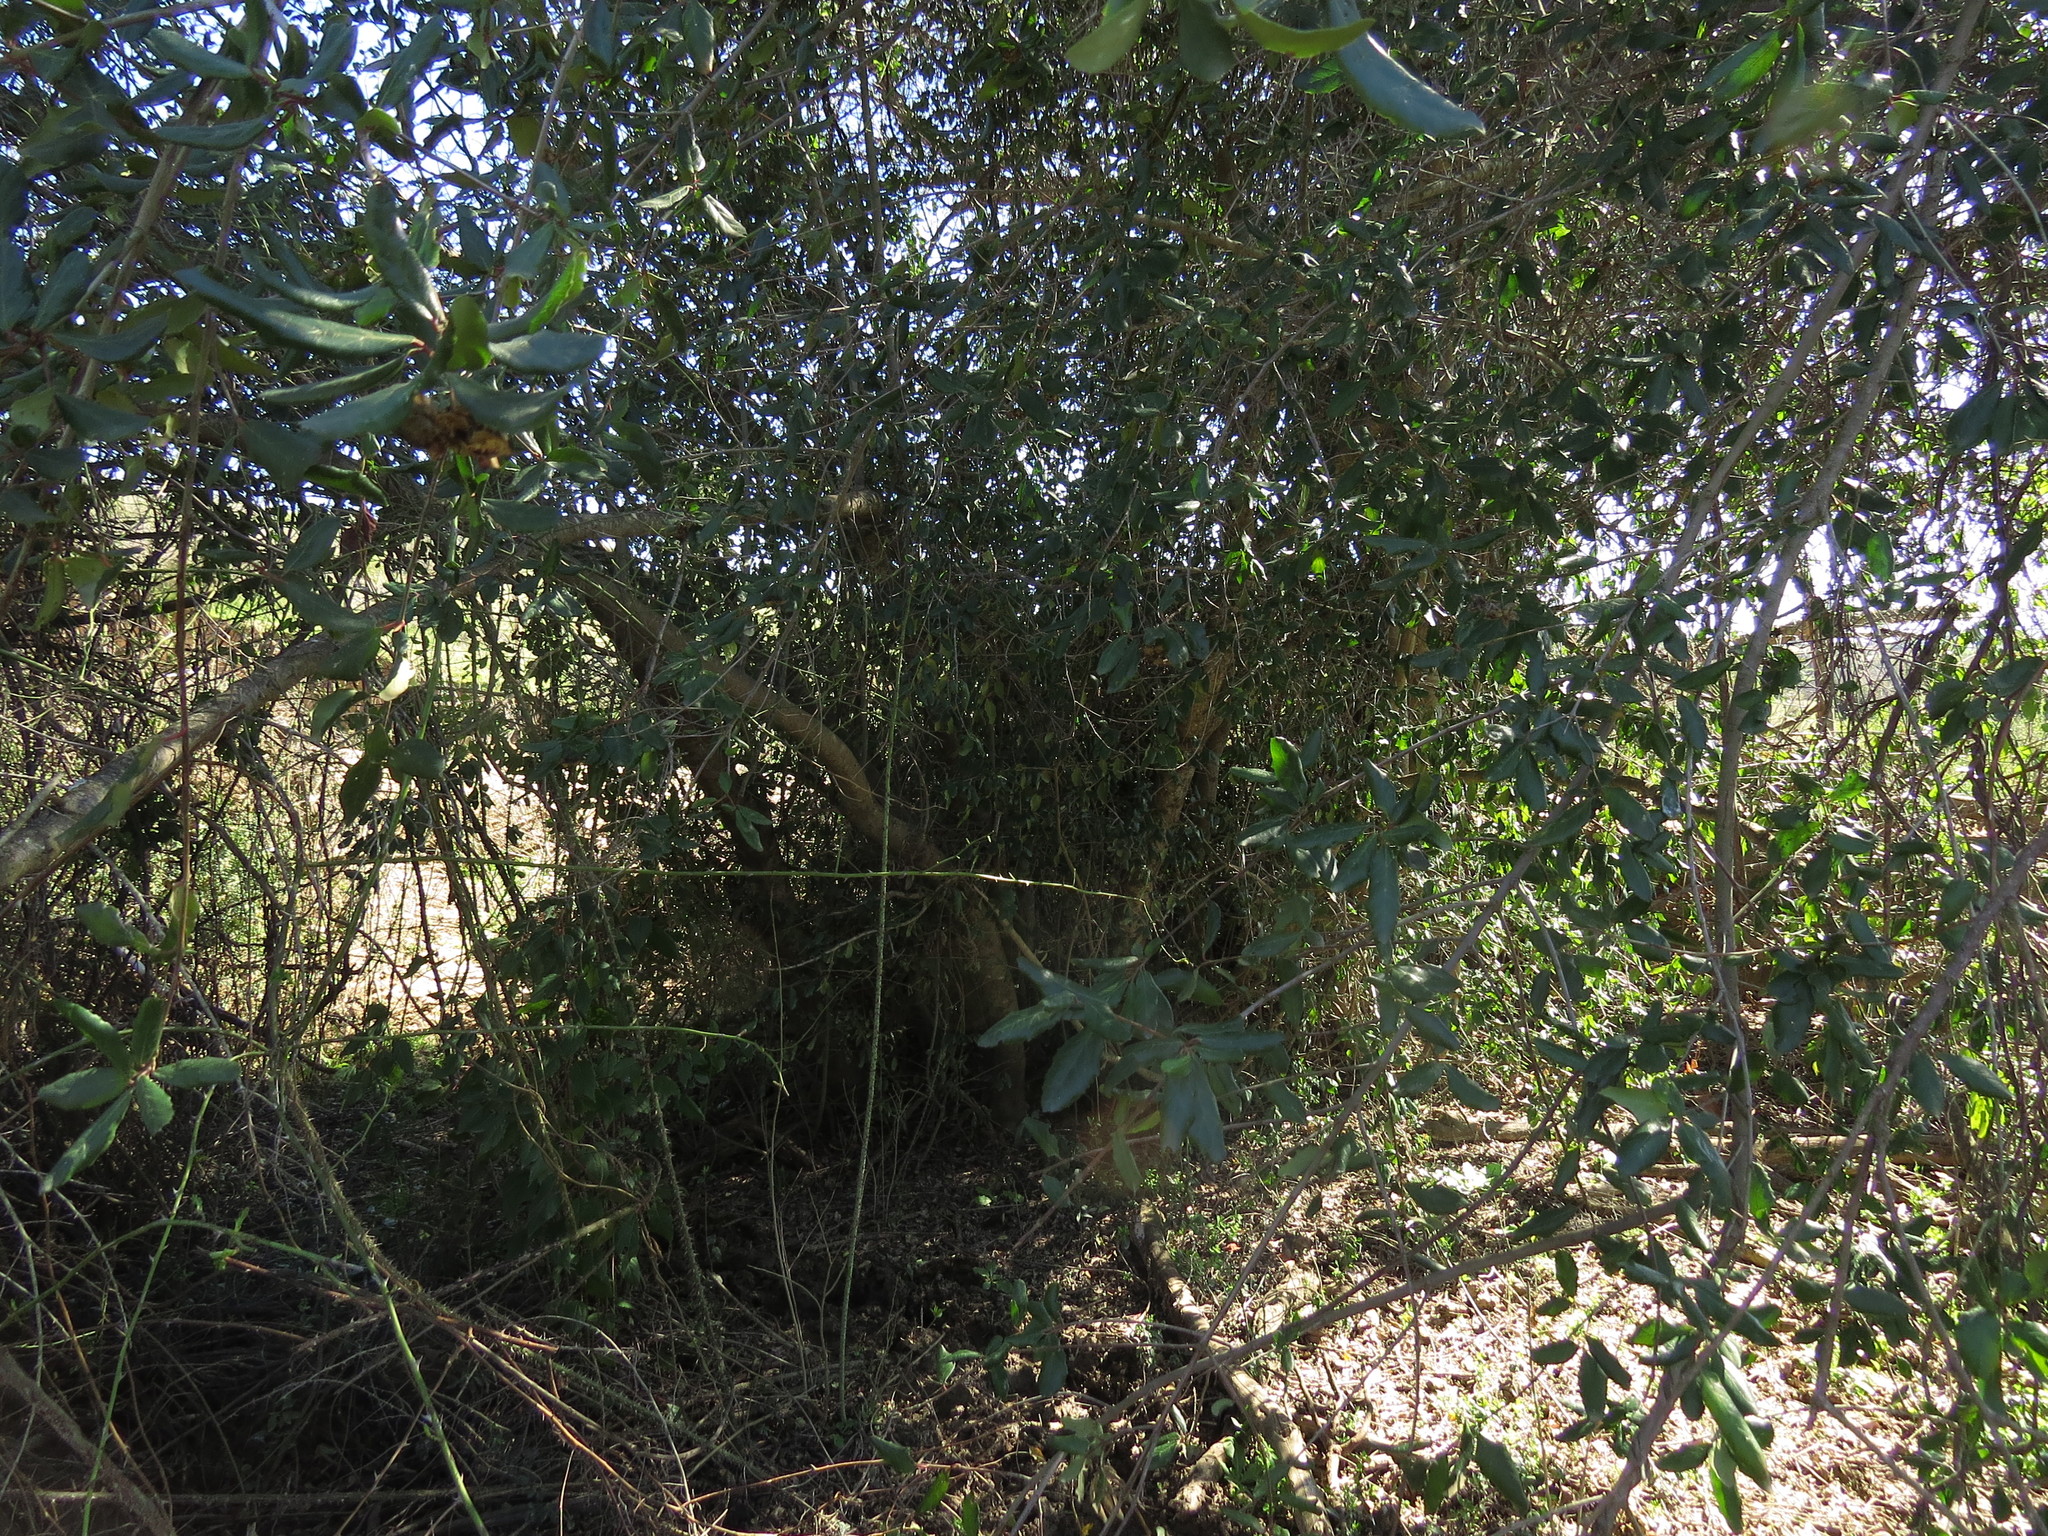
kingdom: Plantae
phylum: Tracheophyta
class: Magnoliopsida
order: Oxalidales
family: Elaeocarpaceae
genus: Crinodendron
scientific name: Crinodendron patagua
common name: Lily-of-the-valley-tree
